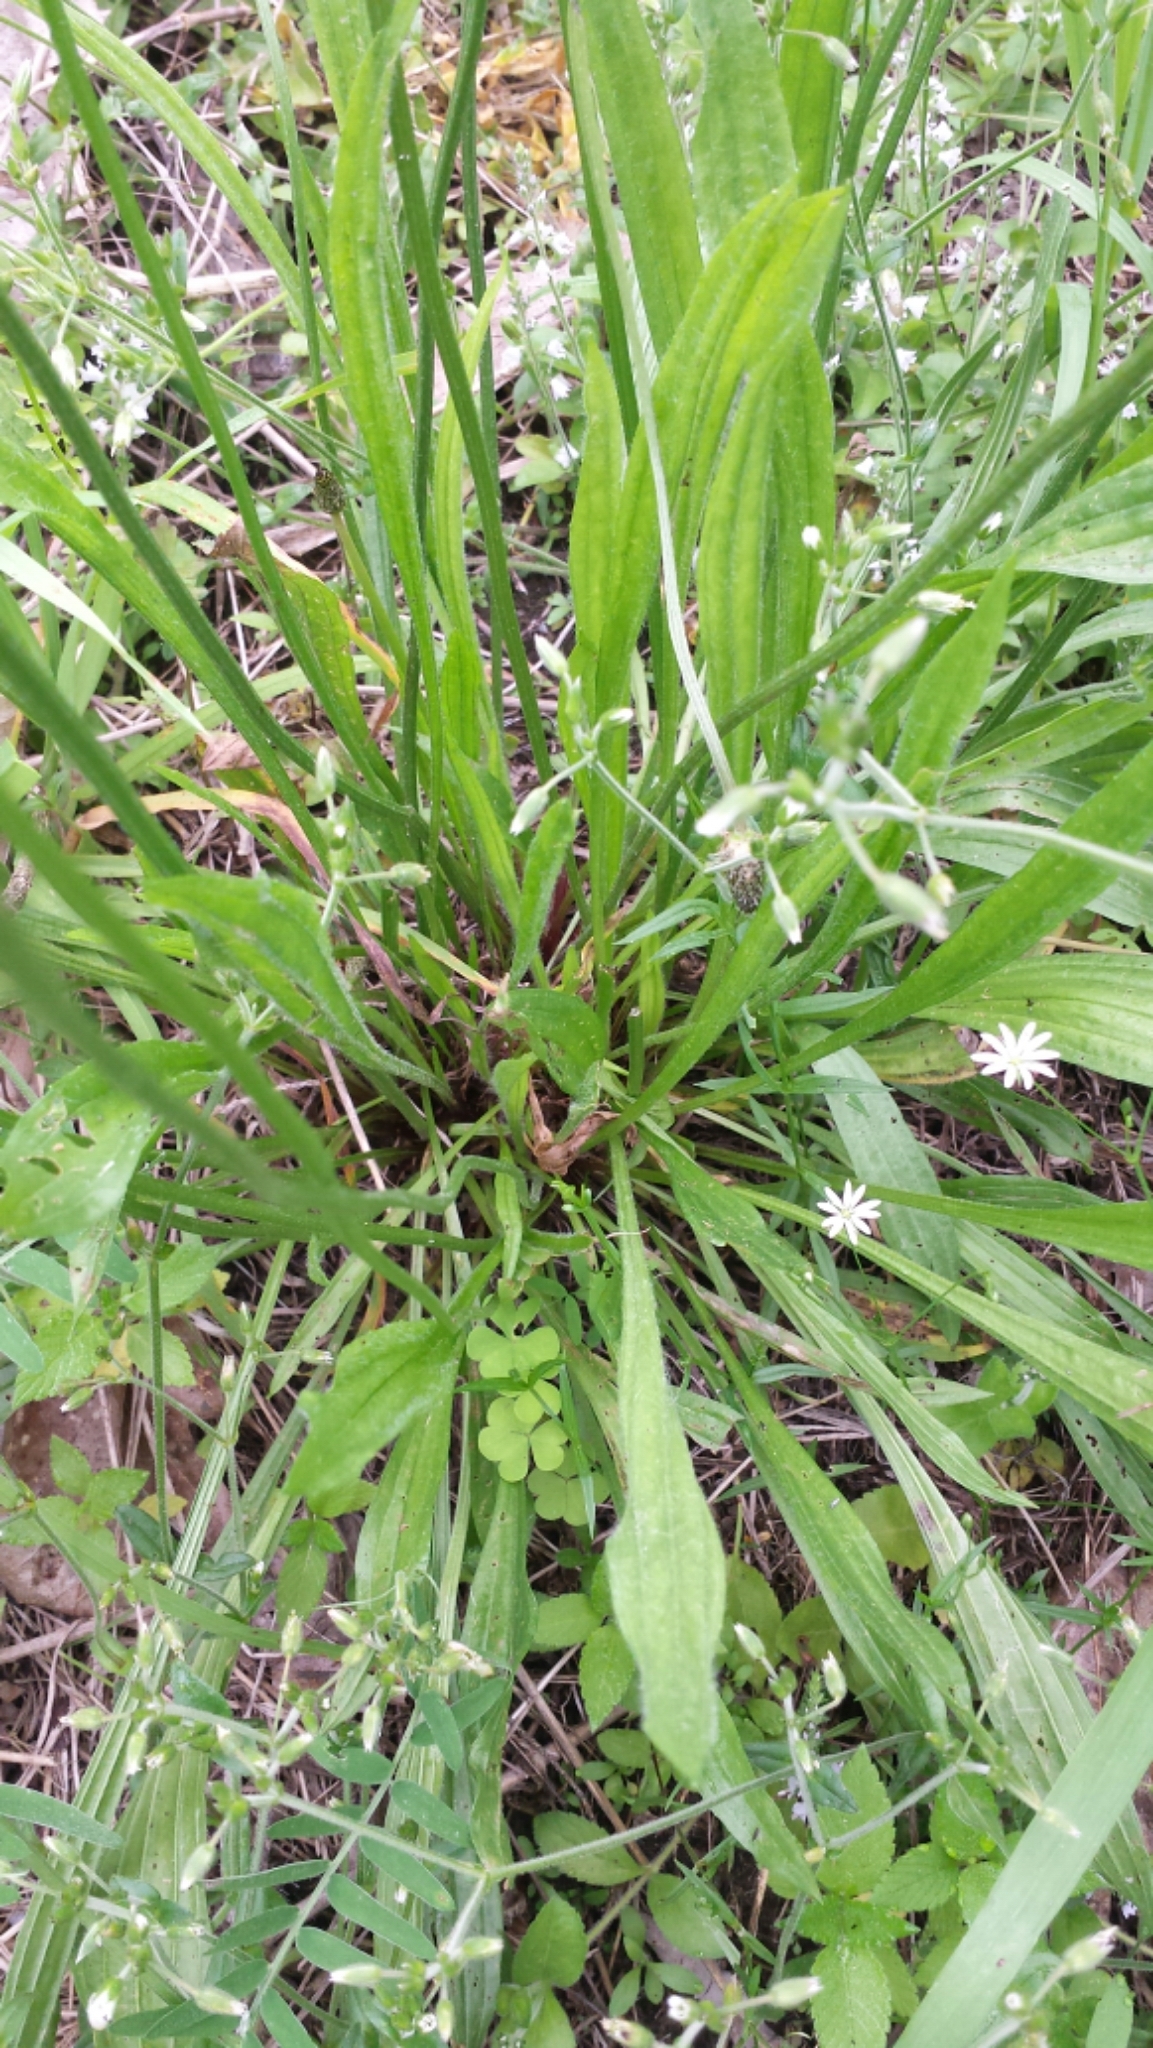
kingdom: Plantae
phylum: Tracheophyta
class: Magnoliopsida
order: Lamiales
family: Plantaginaceae
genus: Plantago
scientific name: Plantago lanceolata
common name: Ribwort plantain
